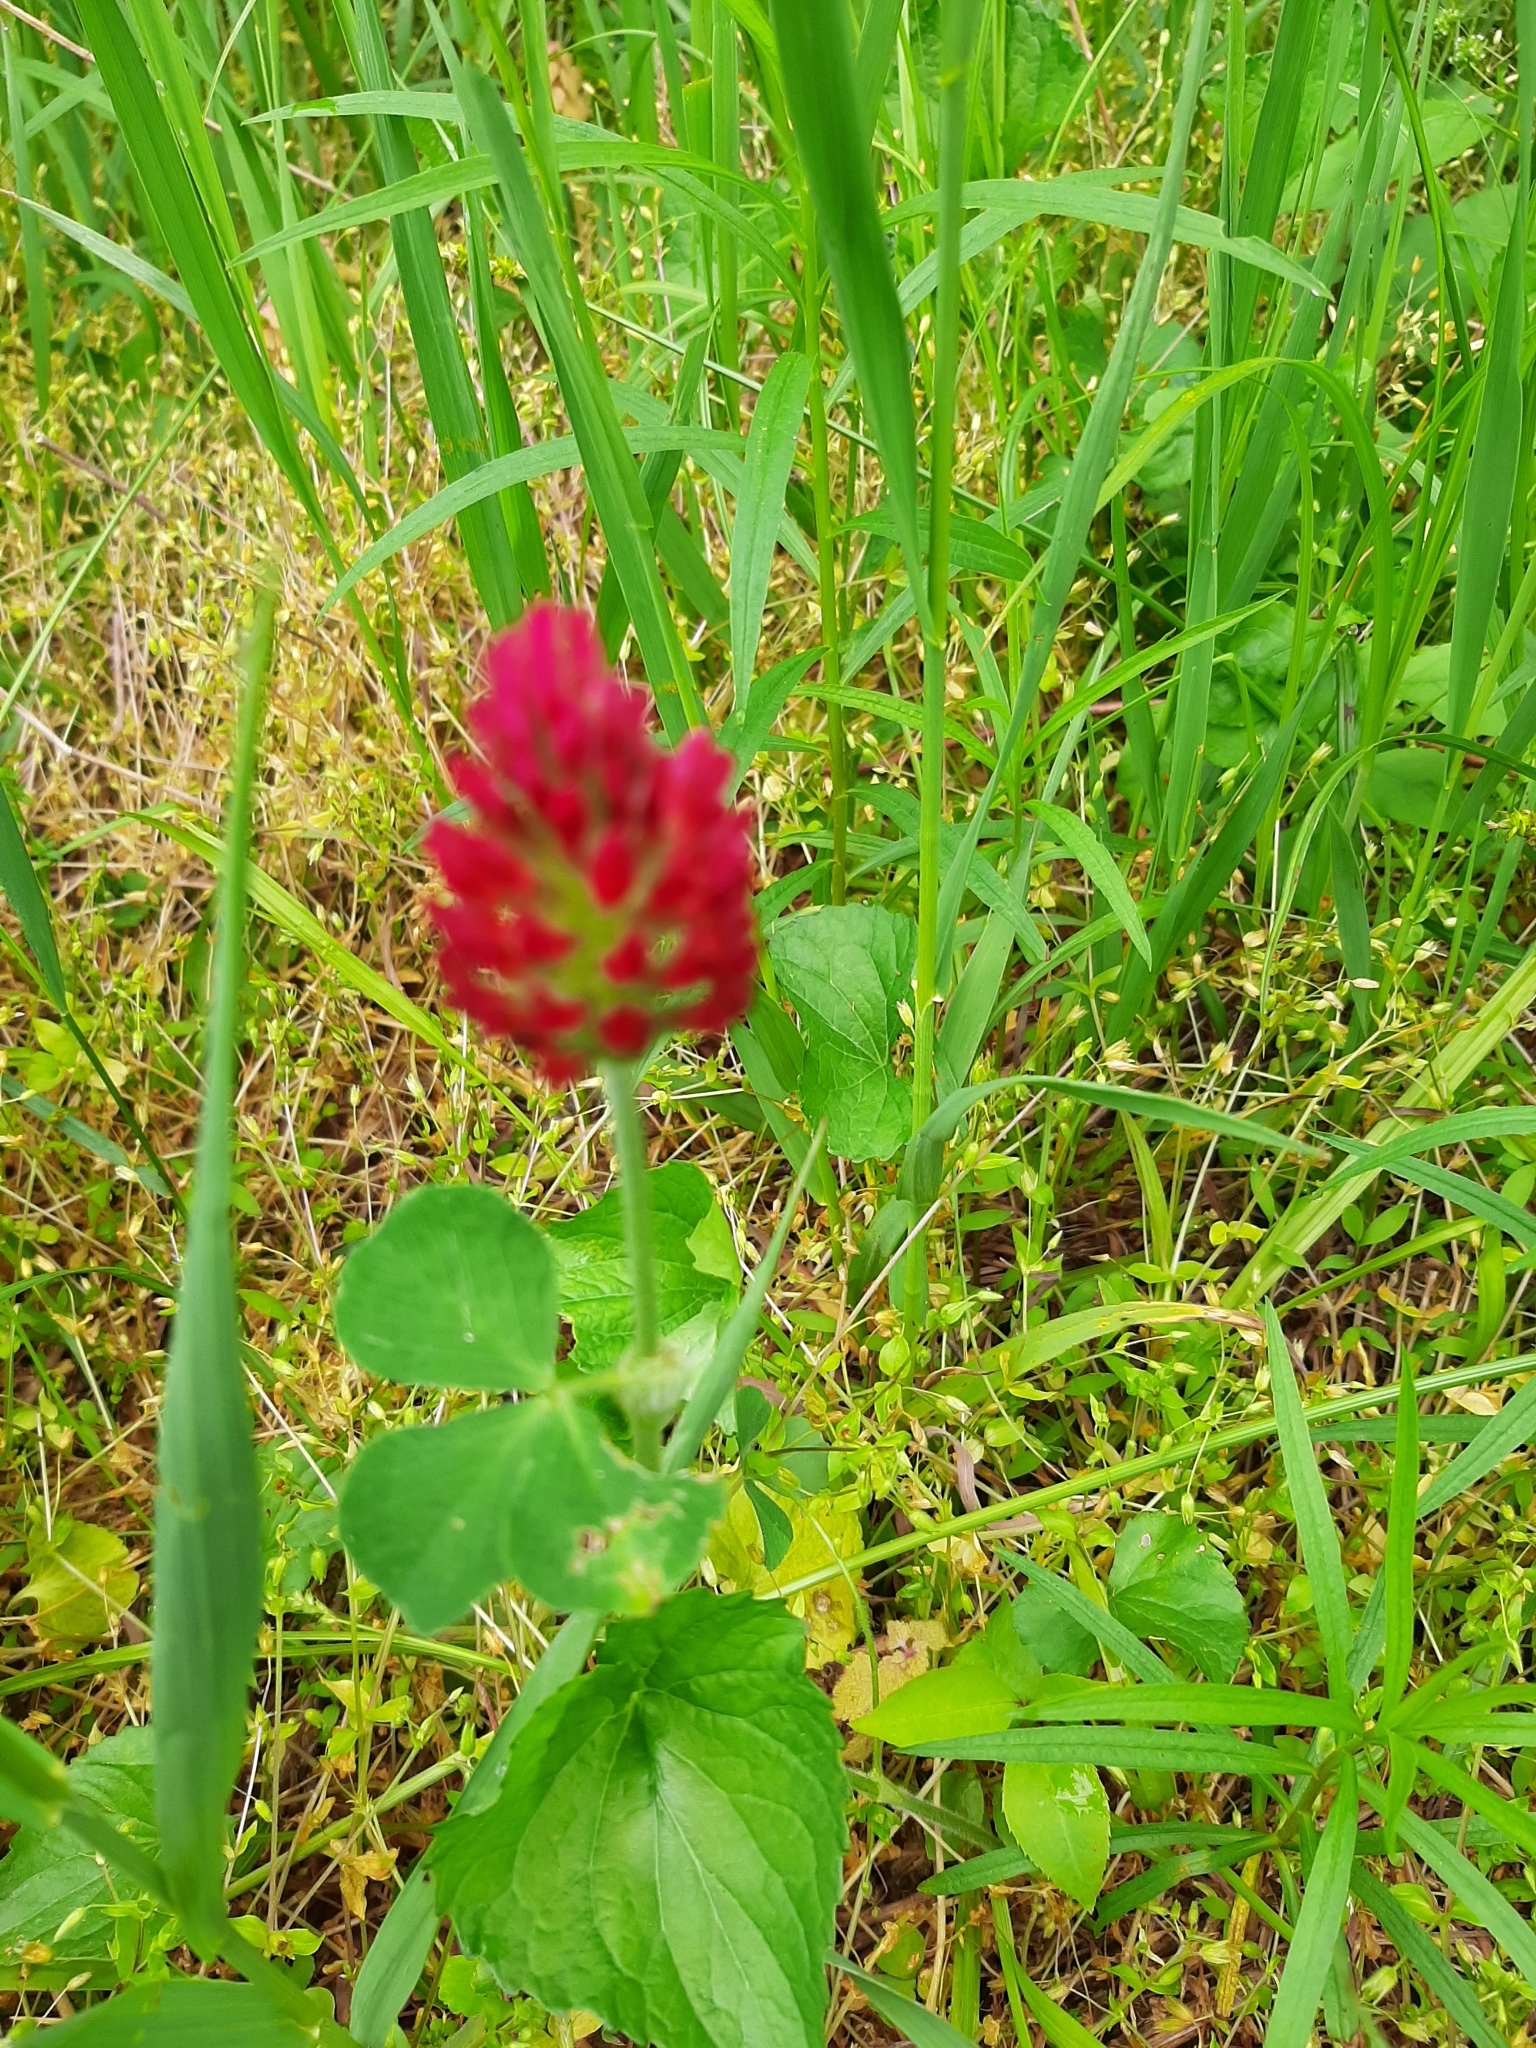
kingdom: Plantae
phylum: Tracheophyta
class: Magnoliopsida
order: Fabales
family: Fabaceae
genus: Trifolium
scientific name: Trifolium incarnatum
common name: Crimson clover
